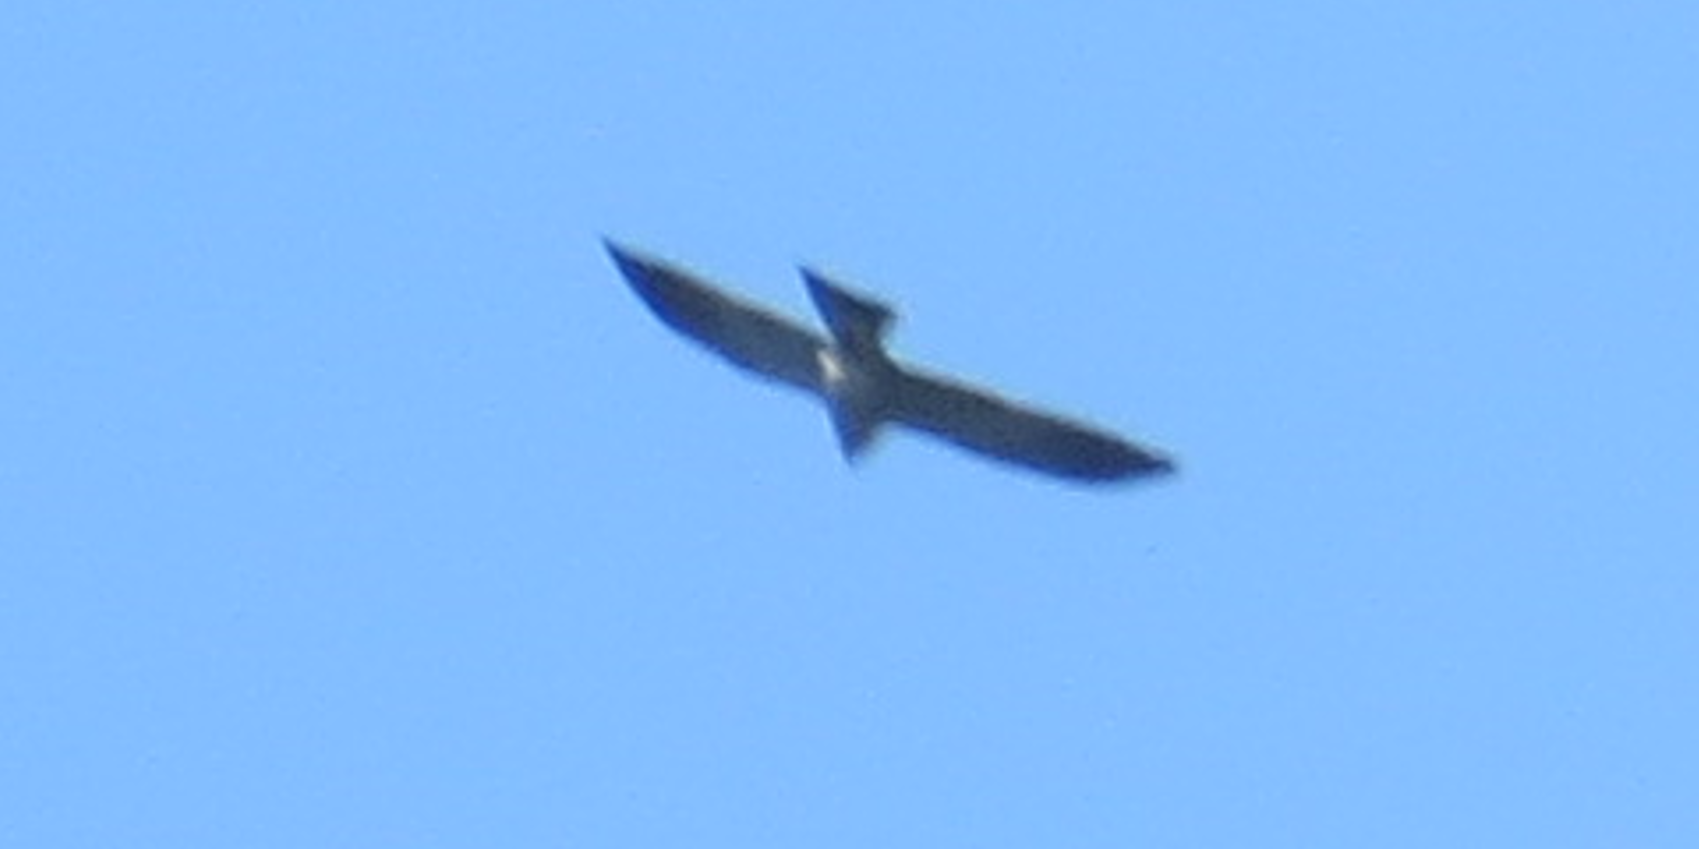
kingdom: Animalia
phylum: Chordata
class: Aves
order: Accipitriformes
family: Accipitridae
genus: Ictinia
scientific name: Ictinia mississippiensis
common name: Mississippi kite
